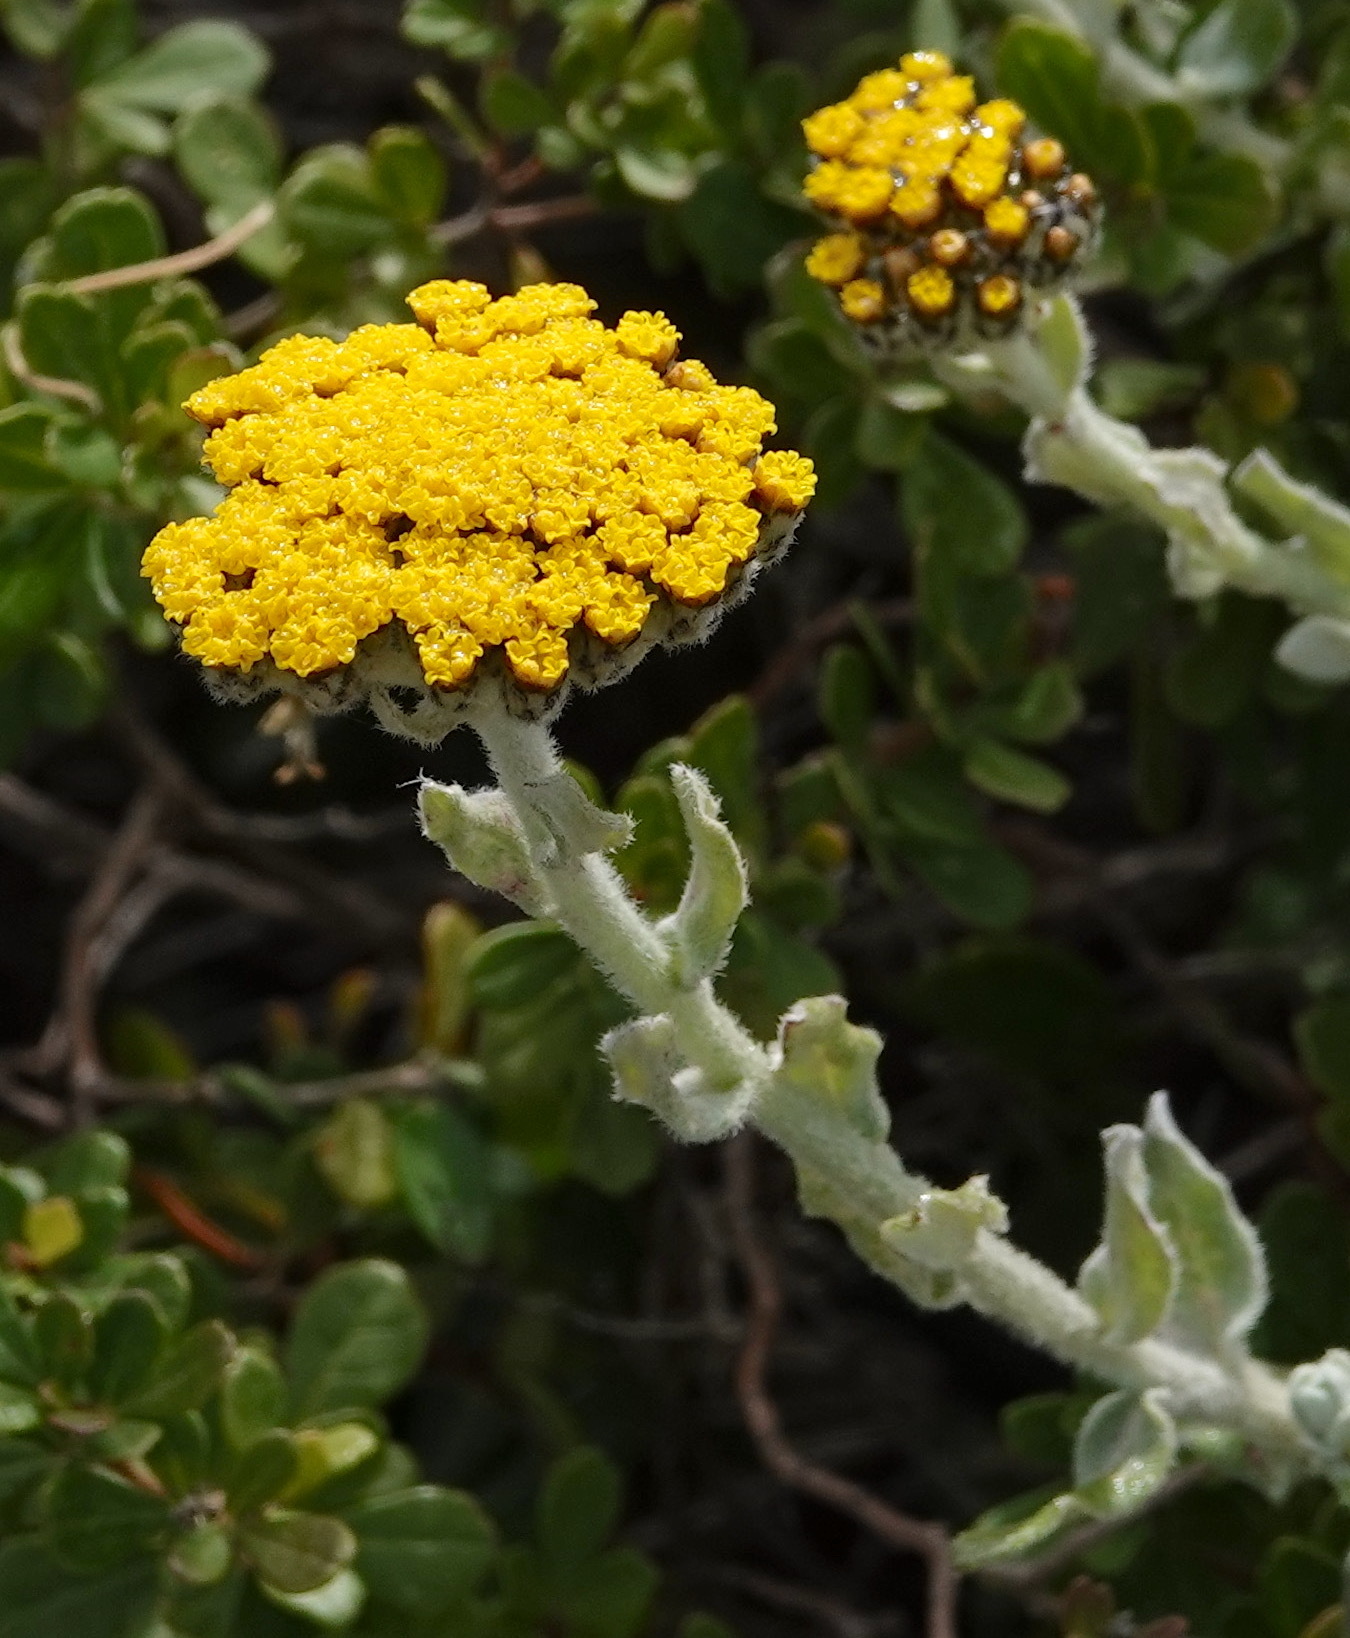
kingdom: Plantae
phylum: Tracheophyta
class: Magnoliopsida
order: Asterales
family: Asteraceae
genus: Helichrysum
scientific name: Helichrysum dasyanthum
